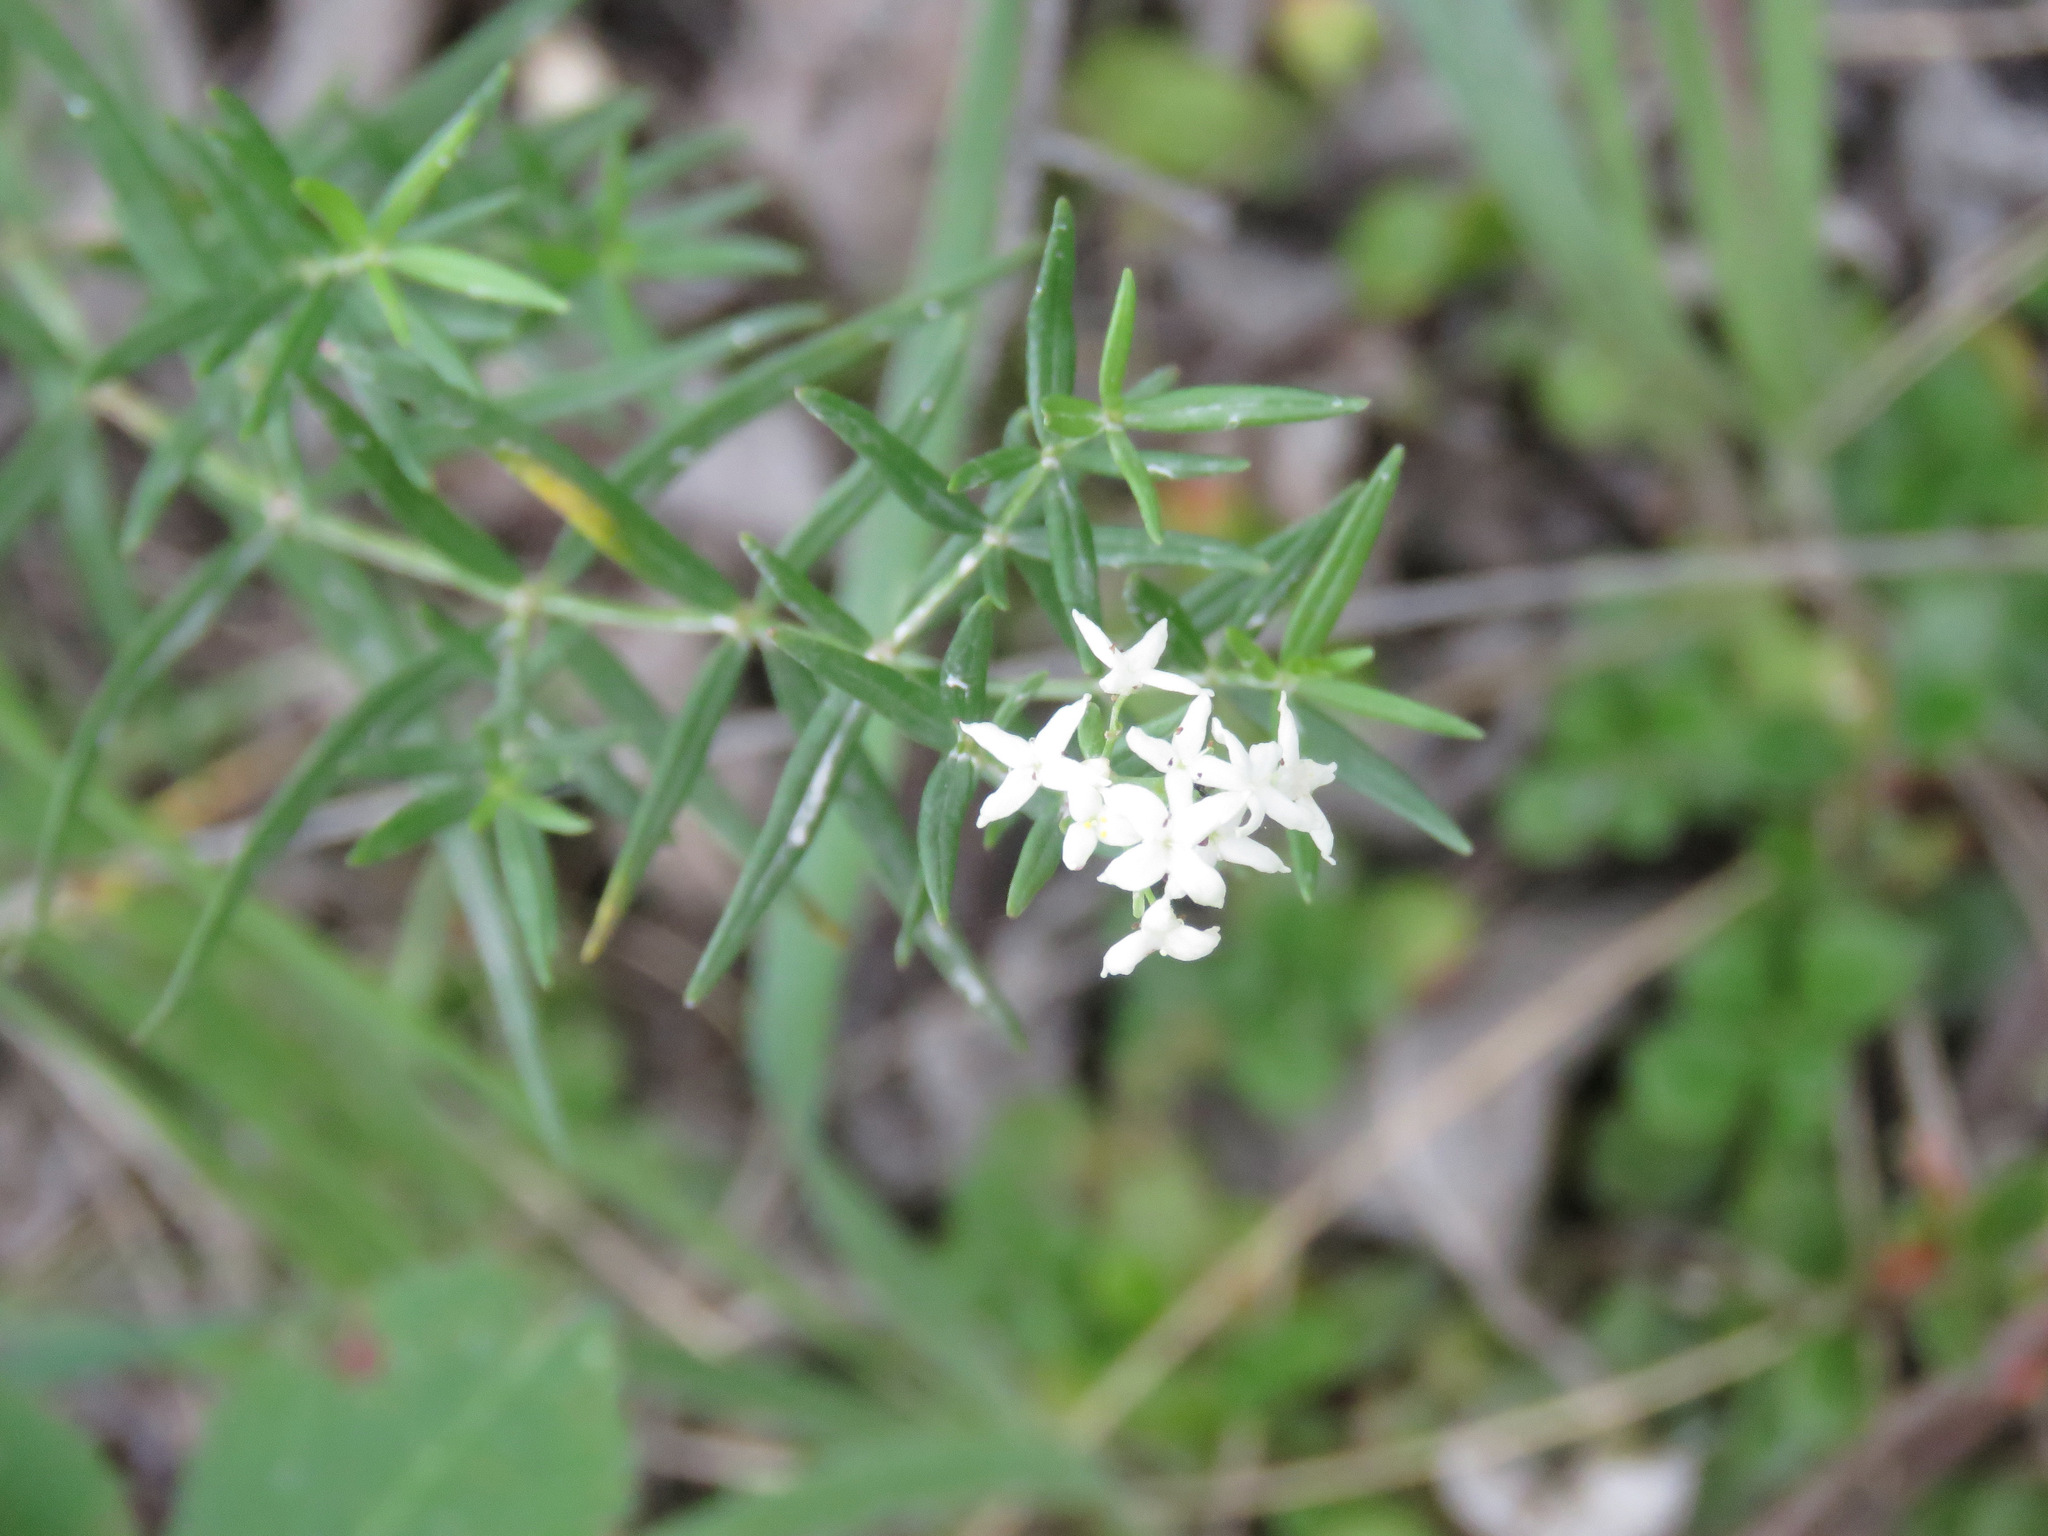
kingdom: Plantae
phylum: Tracheophyta
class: Magnoliopsida
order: Gentianales
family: Rubiaceae
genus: Galium
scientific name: Galium boreale
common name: Northern bedstraw
